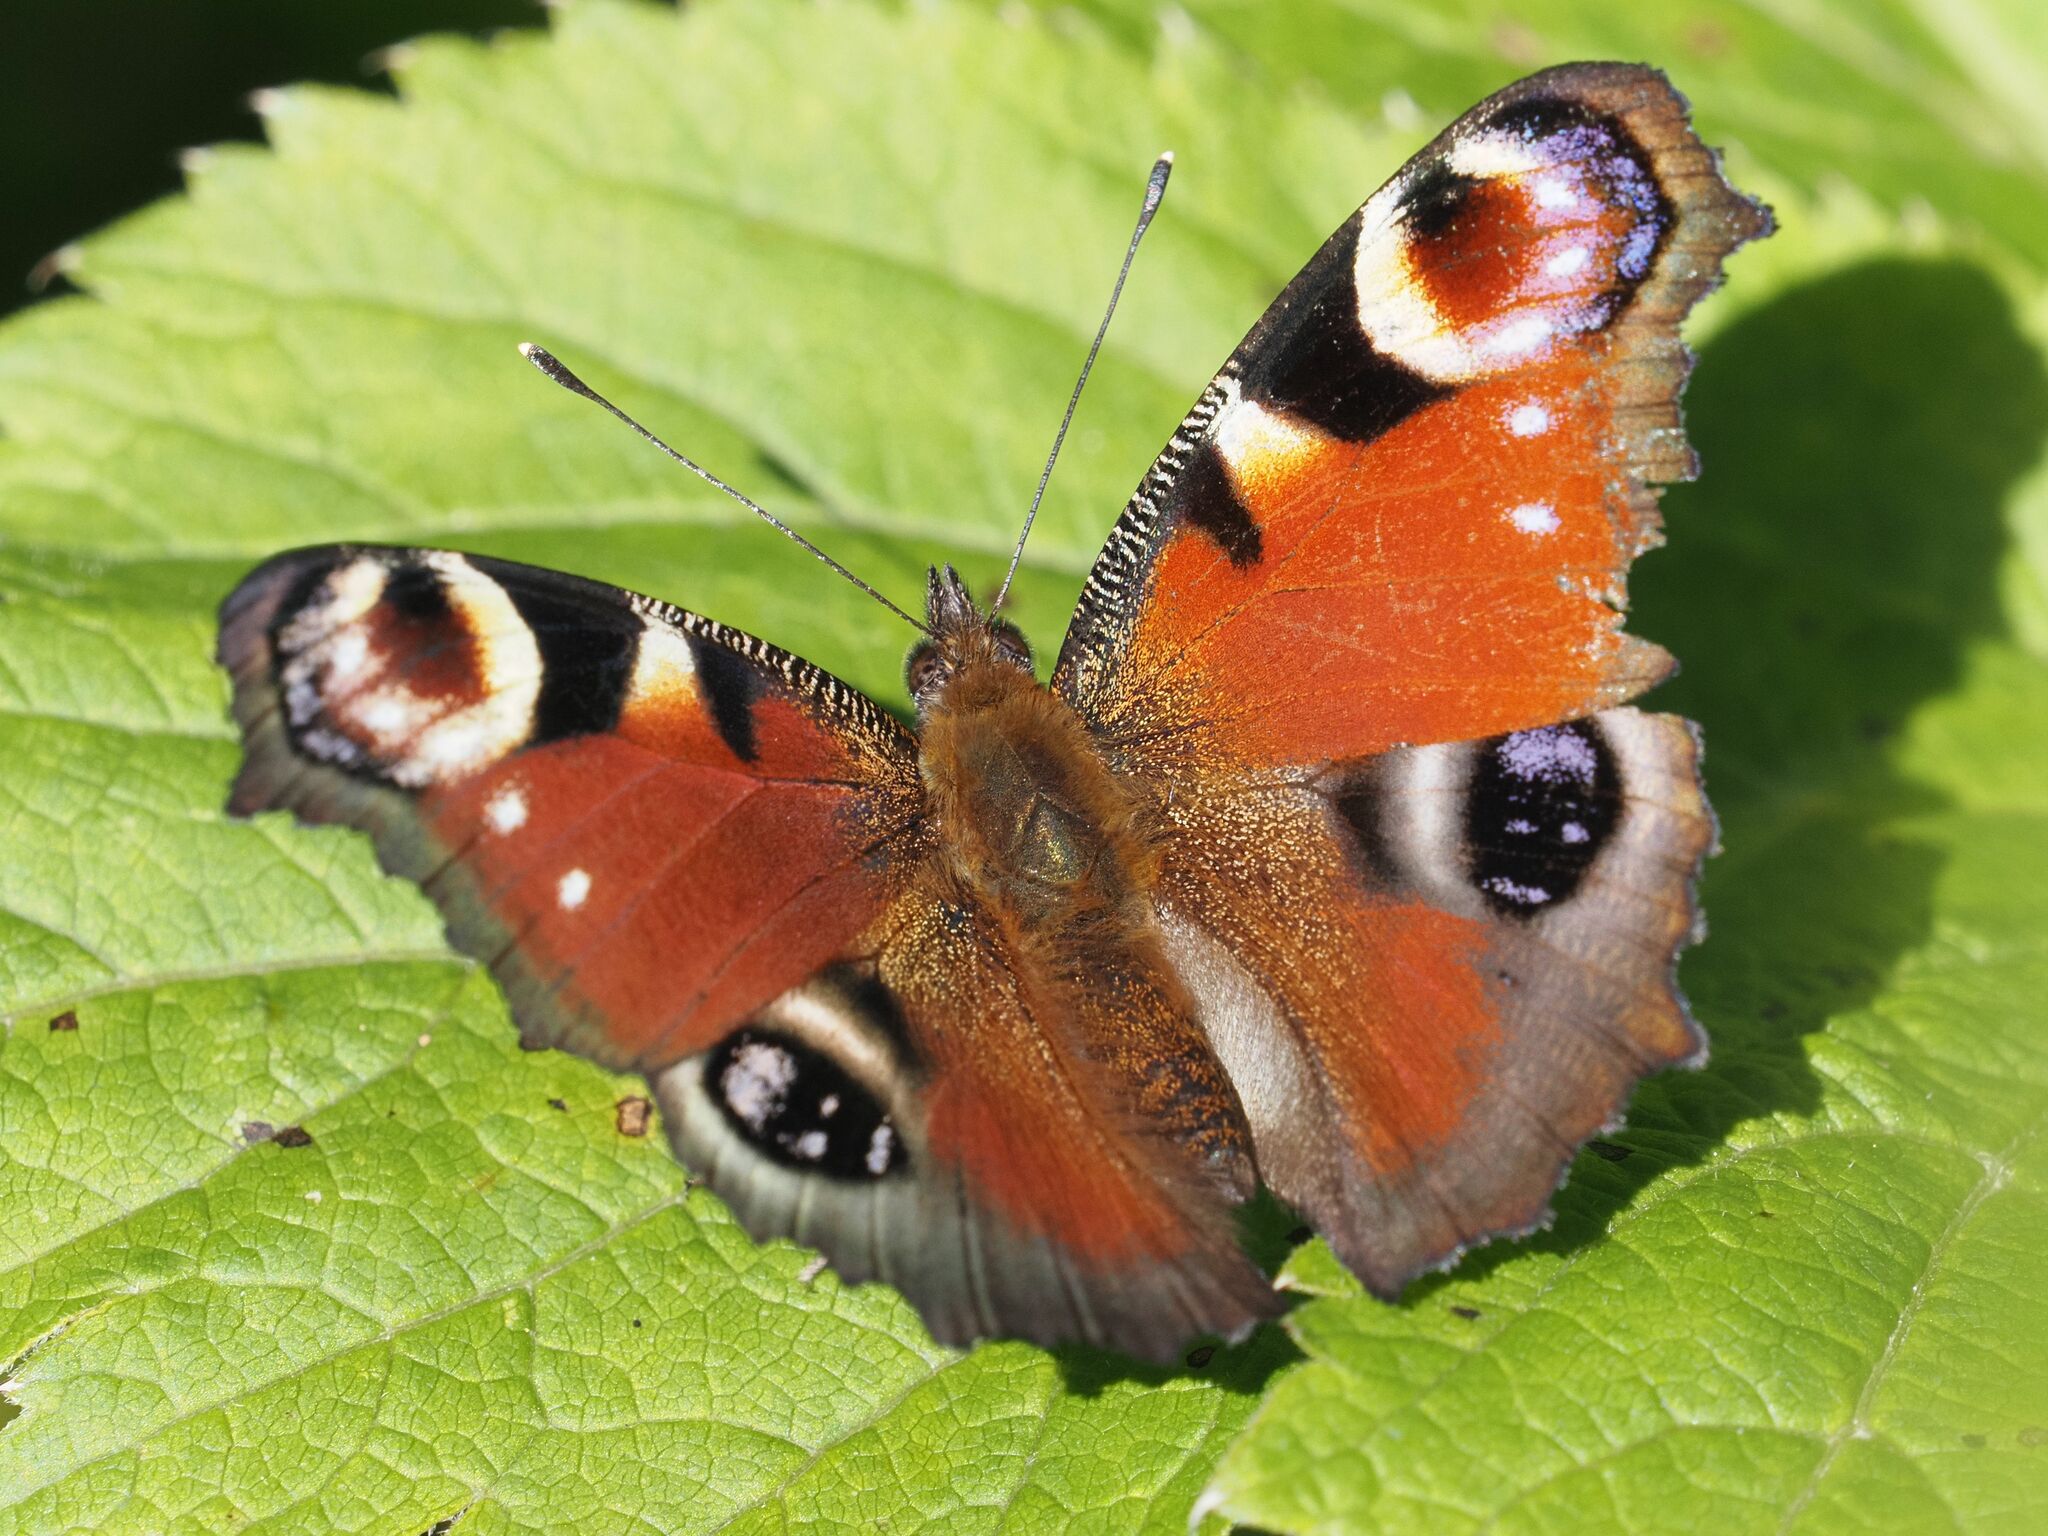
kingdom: Animalia
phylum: Arthropoda
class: Insecta
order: Lepidoptera
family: Nymphalidae
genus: Aglais
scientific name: Aglais io
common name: Peacock
